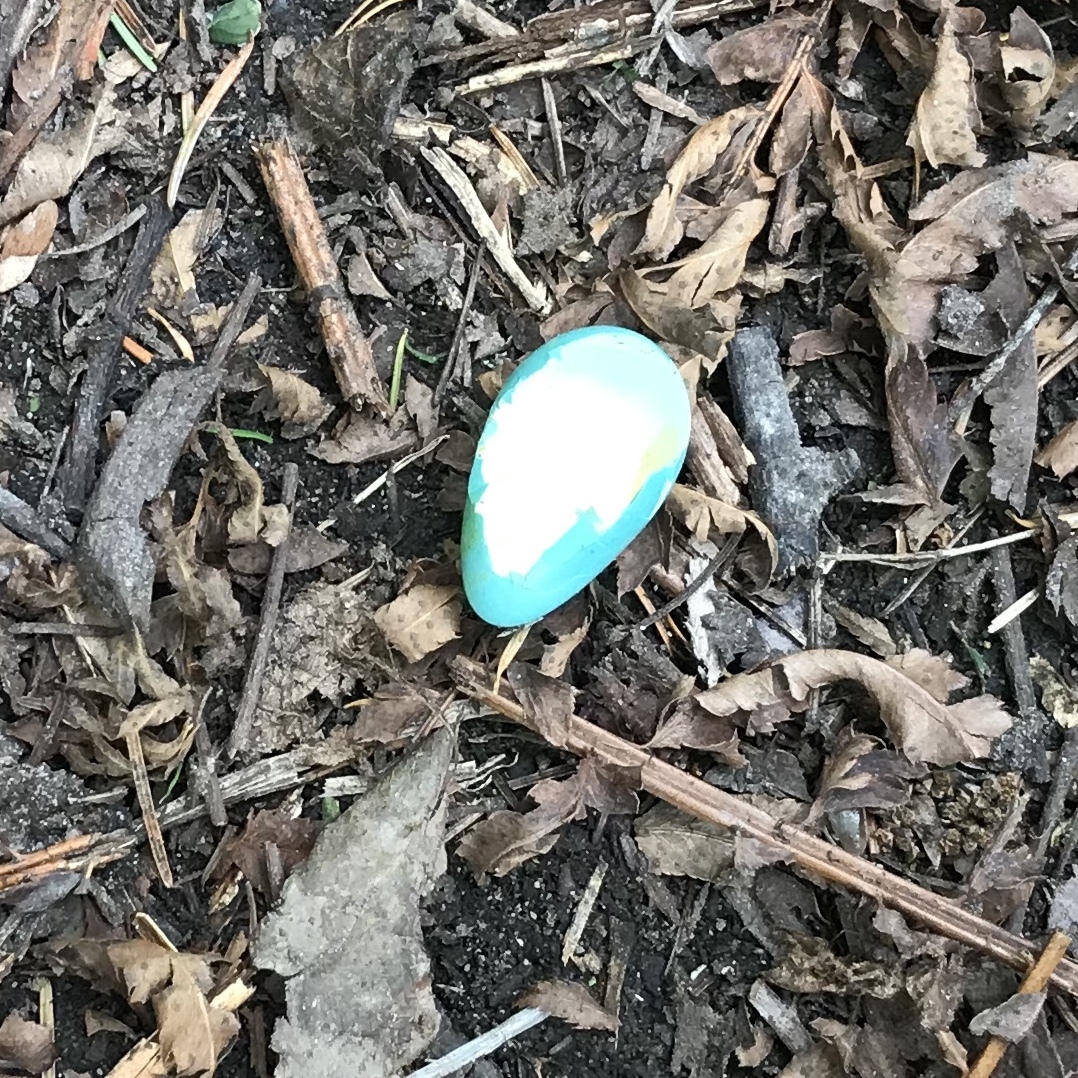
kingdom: Animalia
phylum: Chordata
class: Aves
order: Passeriformes
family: Turdidae
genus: Turdus
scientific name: Turdus migratorius
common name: American robin
